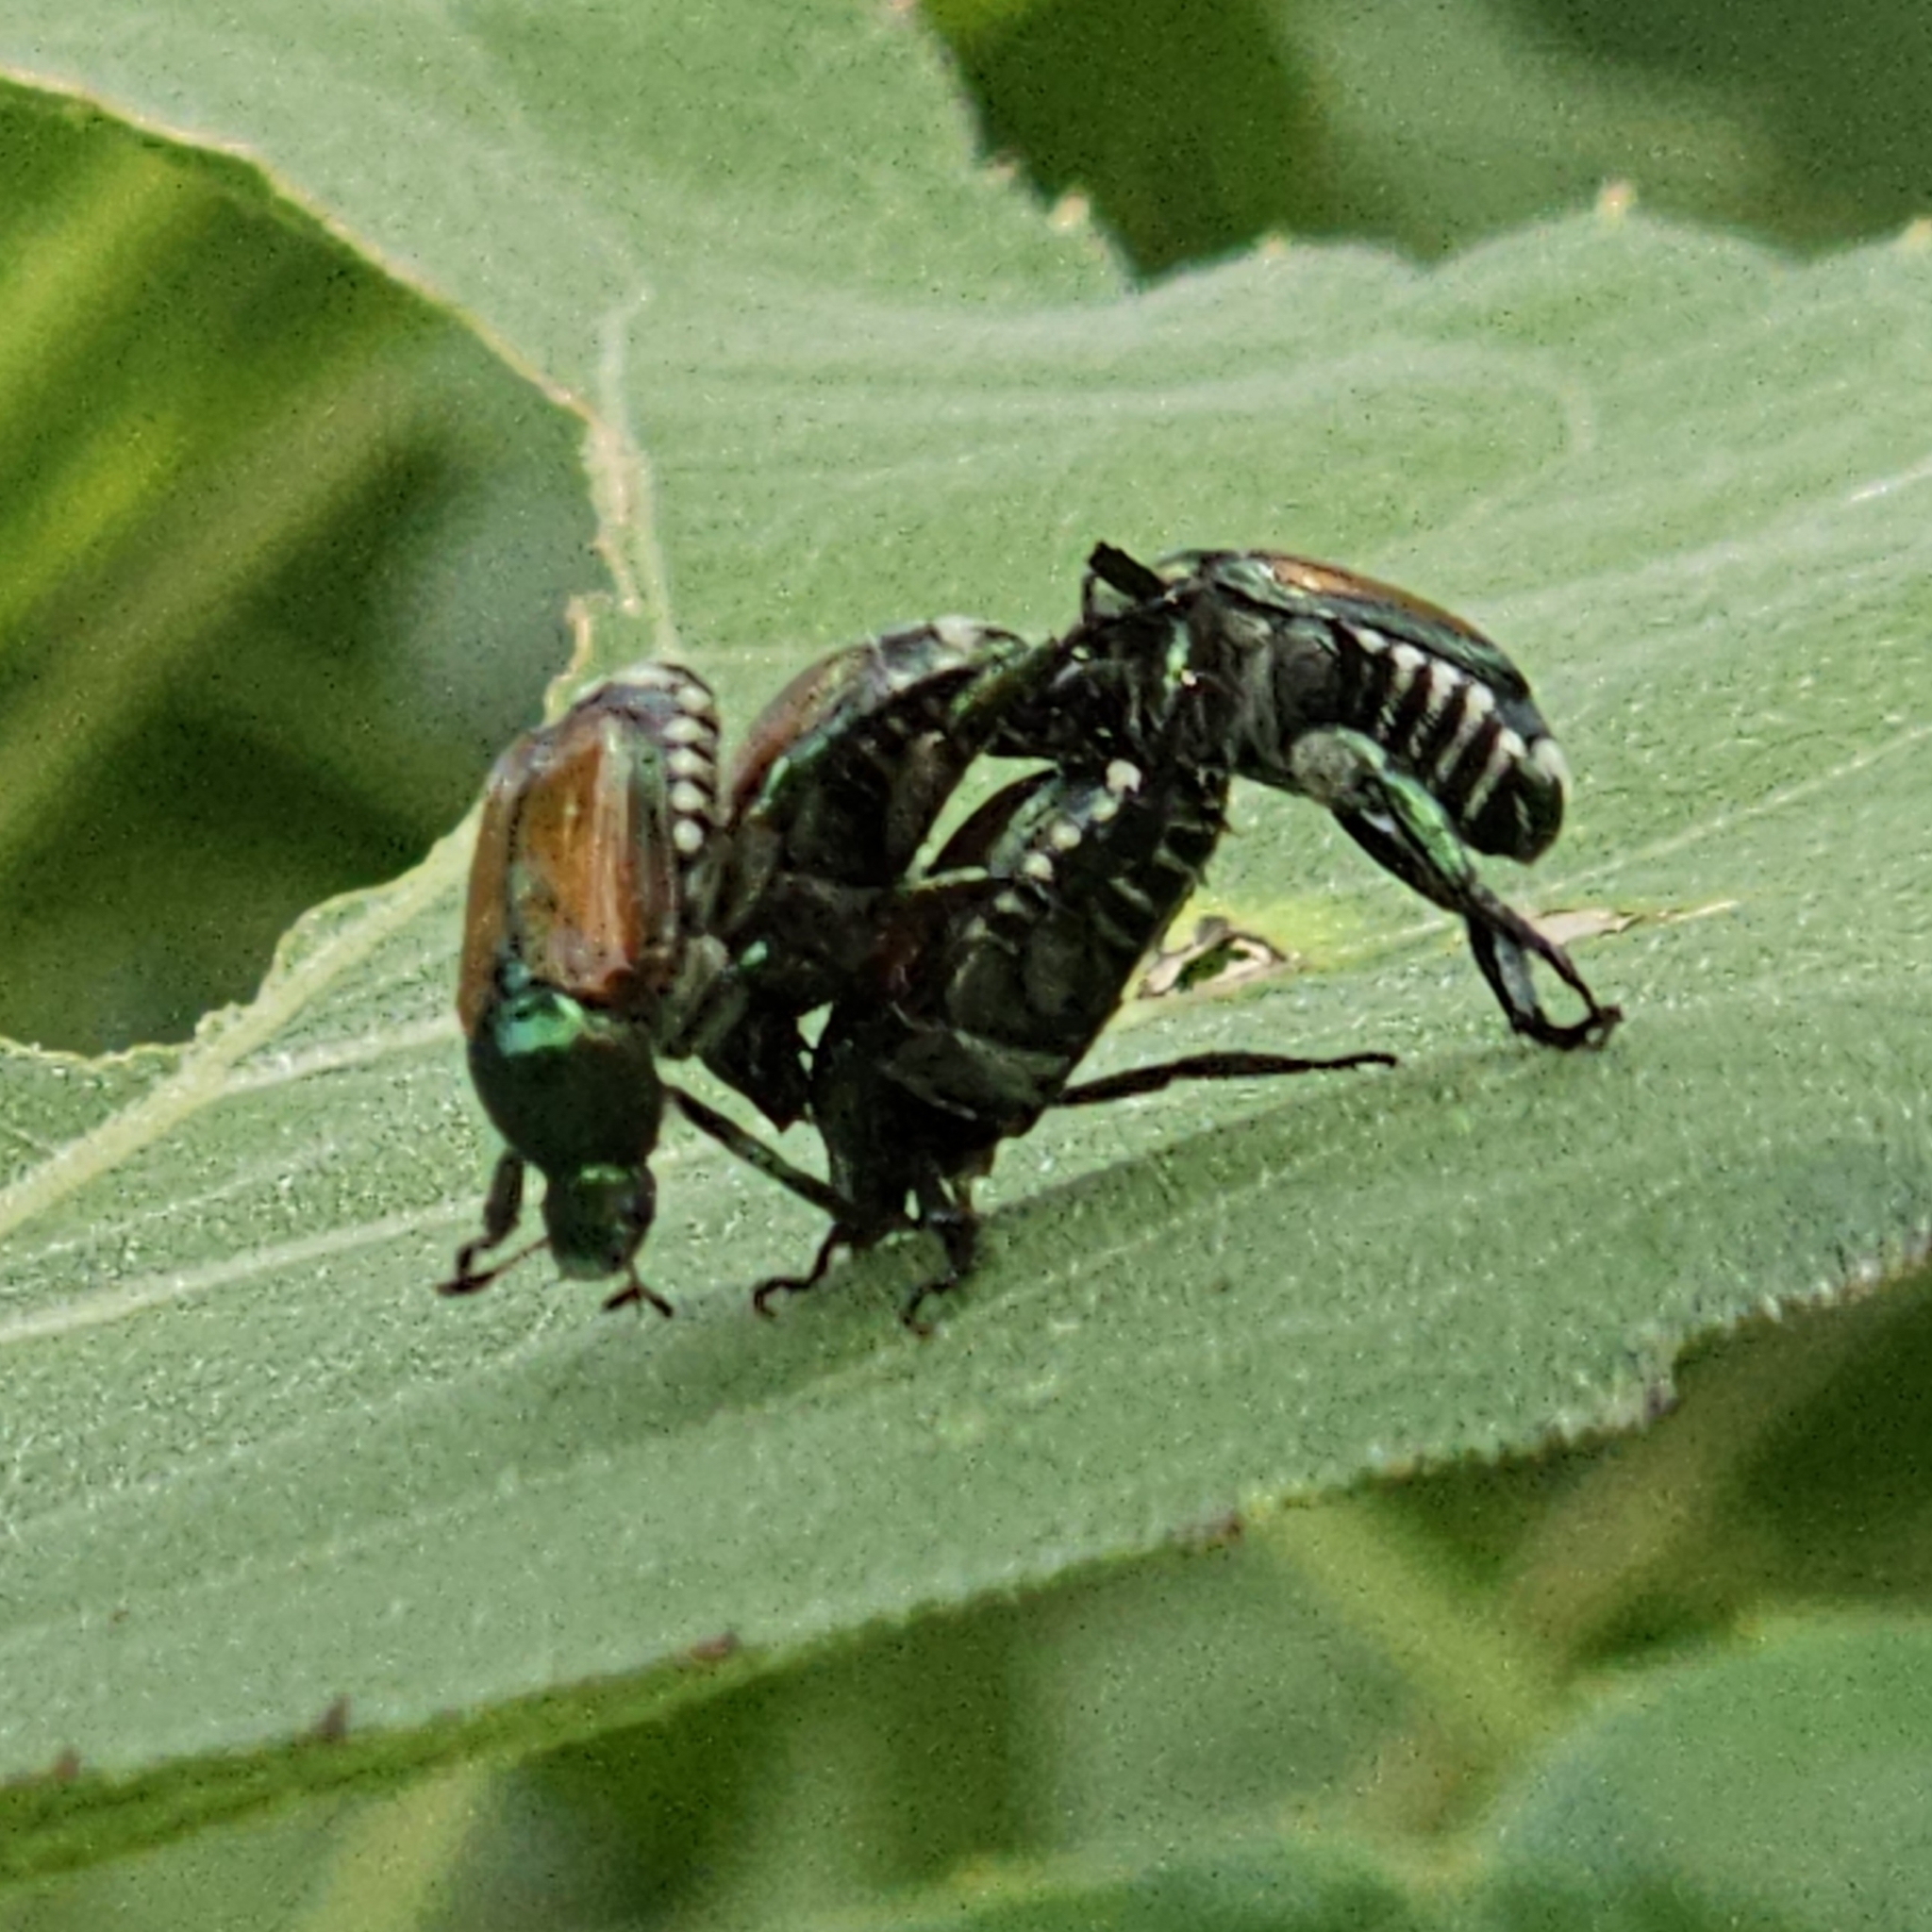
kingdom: Animalia
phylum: Arthropoda
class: Insecta
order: Coleoptera
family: Scarabaeidae
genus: Popillia
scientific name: Popillia japonica
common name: Japanese beetle
